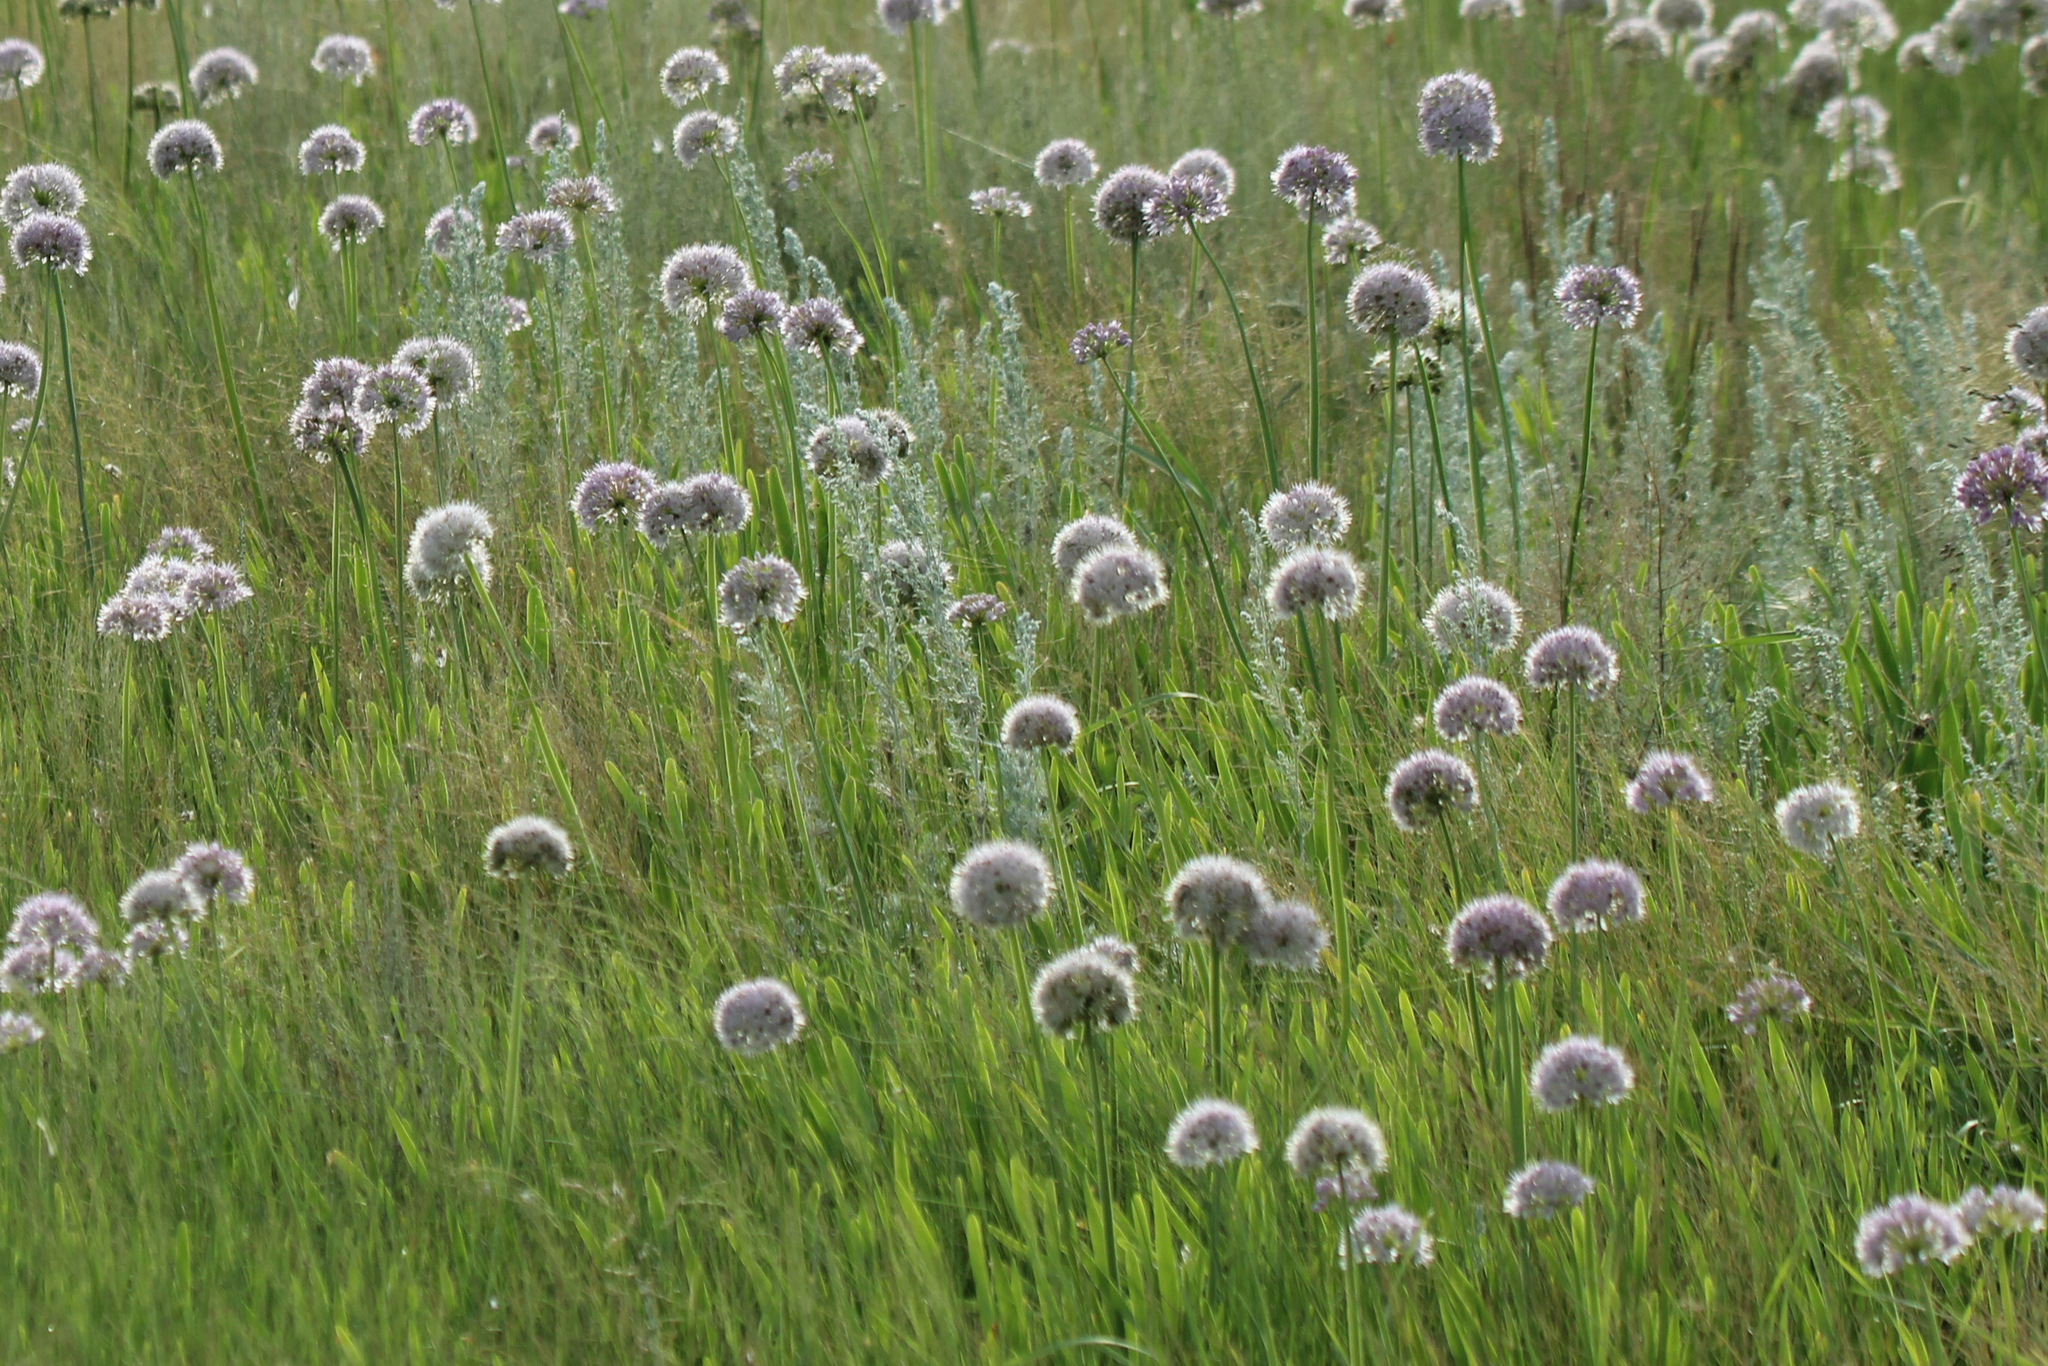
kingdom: Plantae
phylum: Tracheophyta
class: Liliopsida
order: Asparagales
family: Amaryllidaceae
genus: Allium
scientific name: Allium nutans
